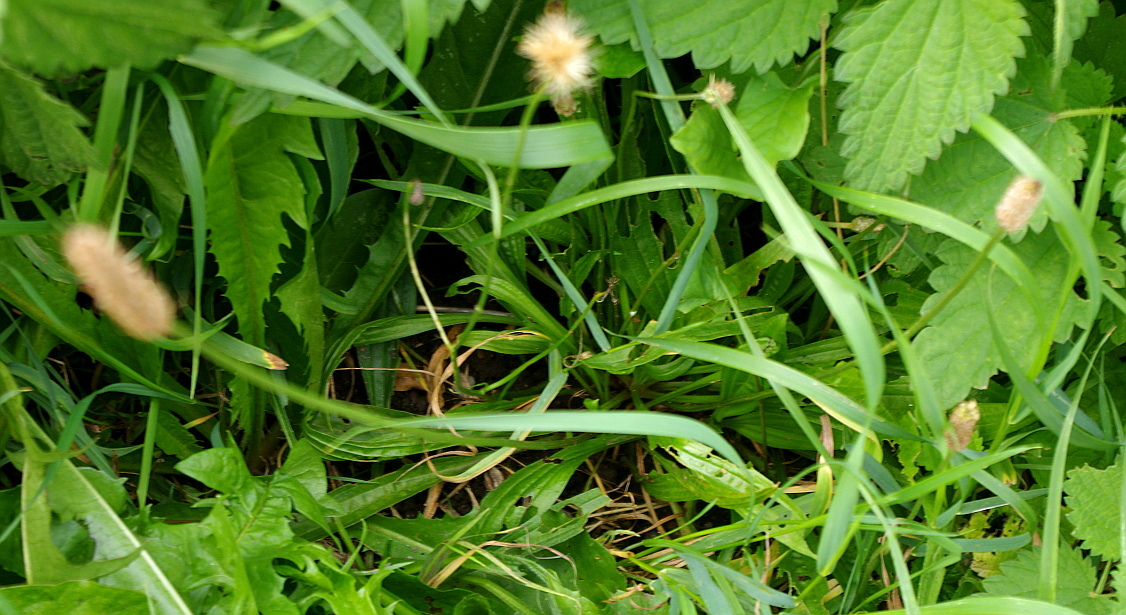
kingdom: Plantae
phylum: Tracheophyta
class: Magnoliopsida
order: Lamiales
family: Plantaginaceae
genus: Plantago
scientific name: Plantago lanceolata
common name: Ribwort plantain
